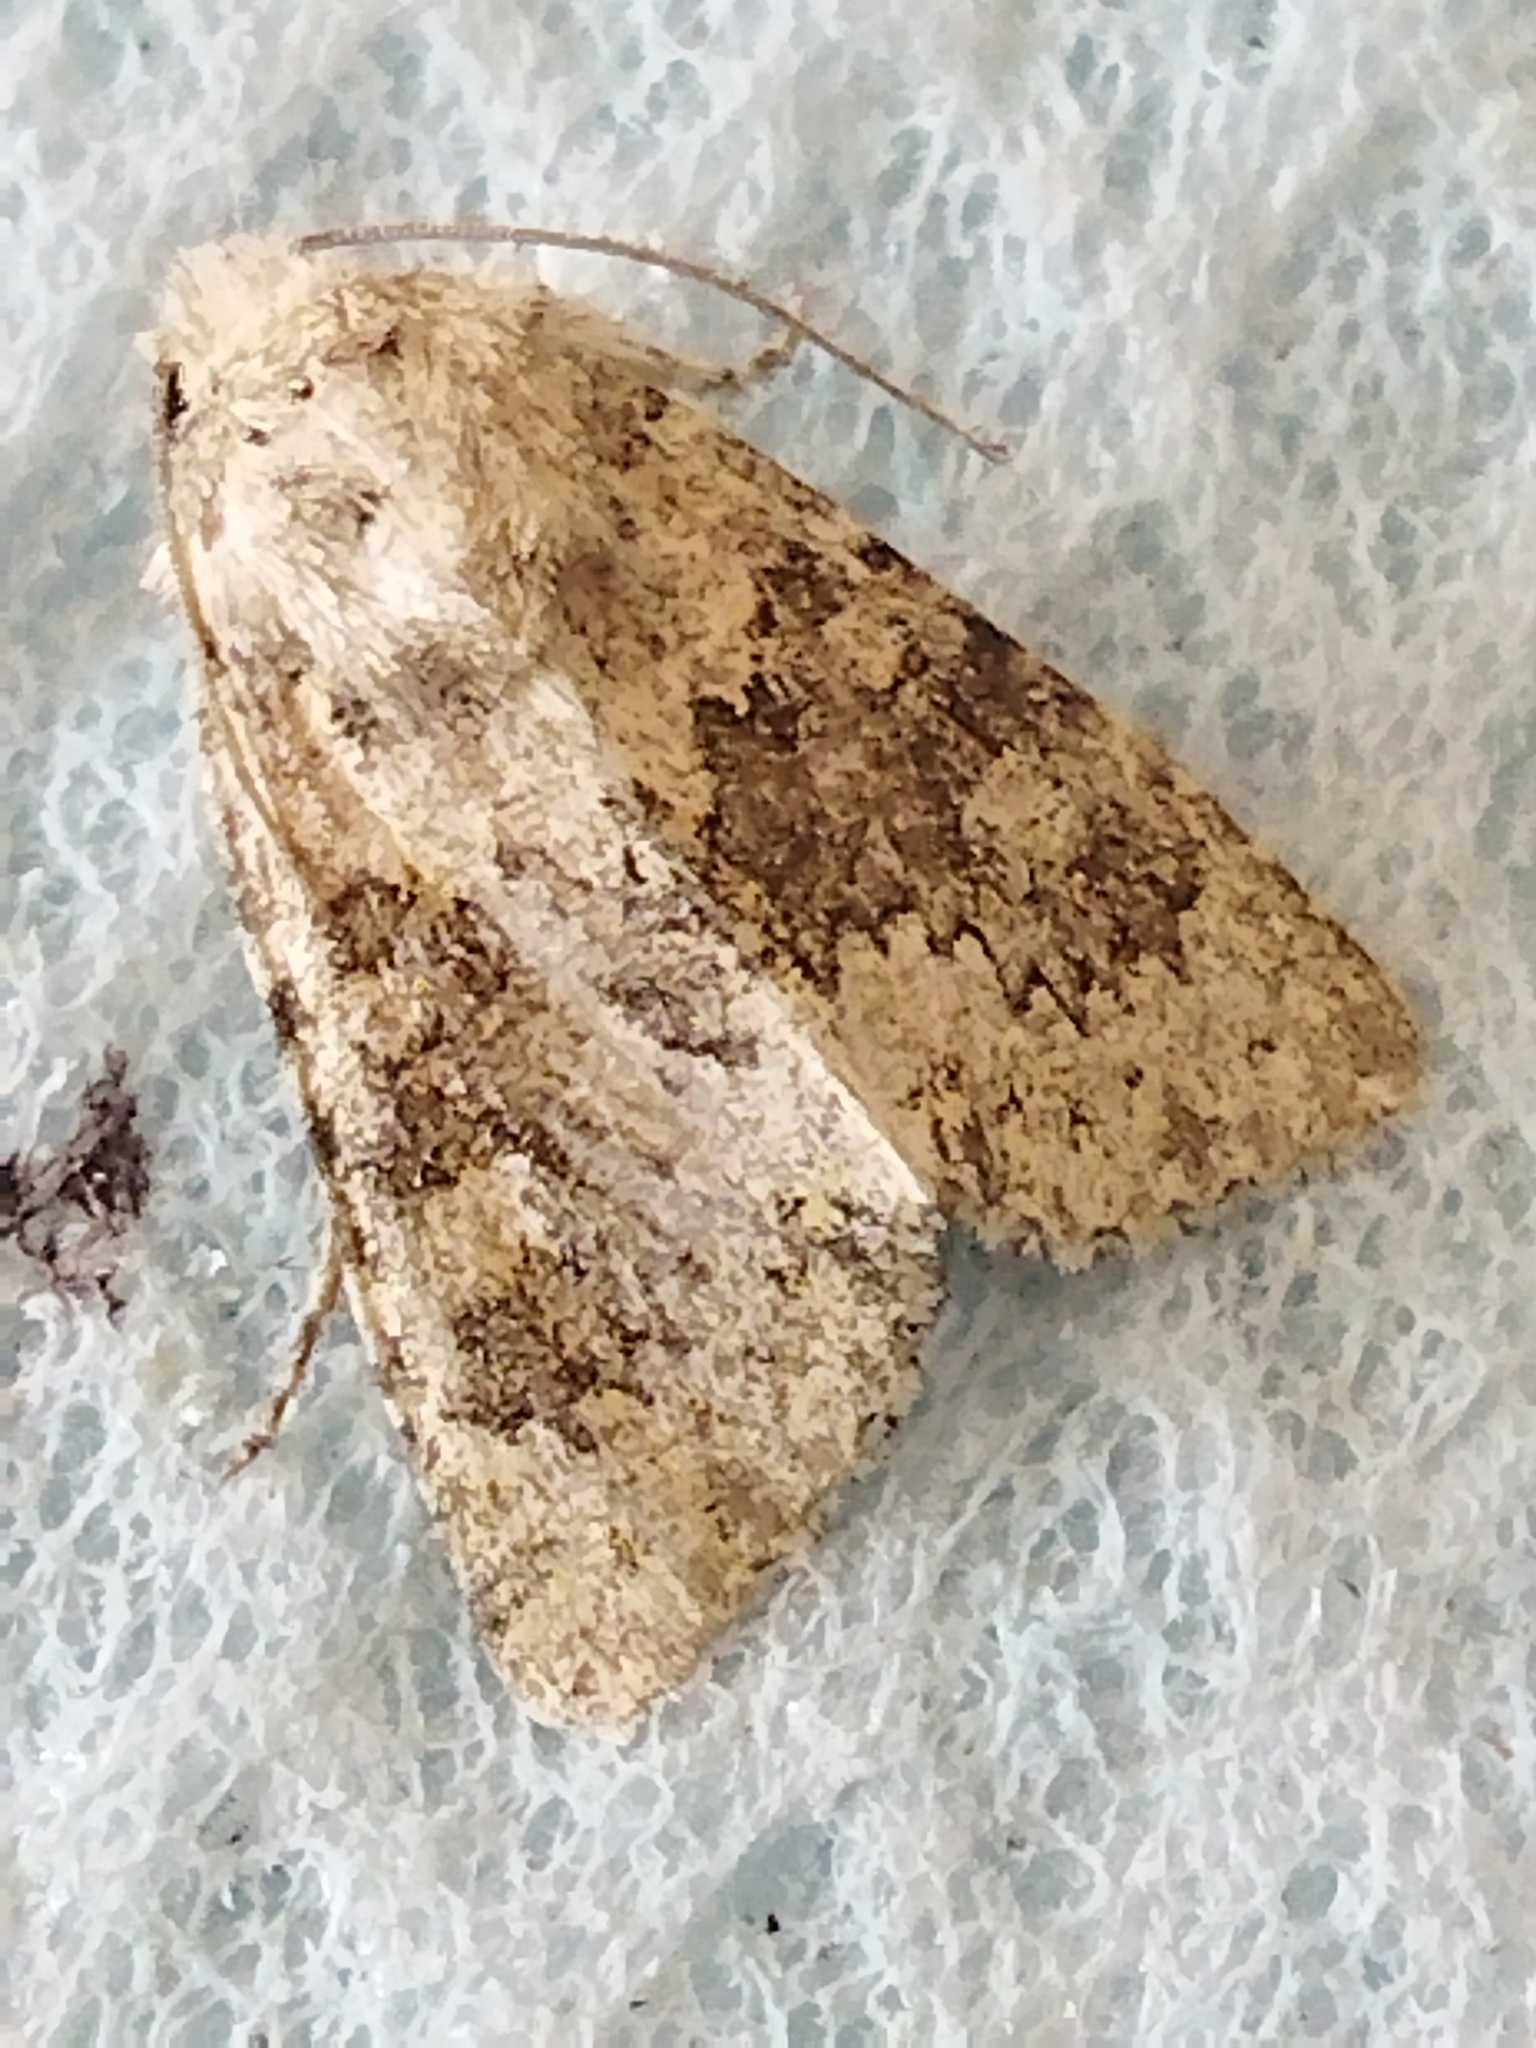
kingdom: Animalia
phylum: Arthropoda
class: Insecta
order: Lepidoptera
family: Noctuidae
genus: Hecatera
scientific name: Hecatera dysodea
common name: Small ranunculus
